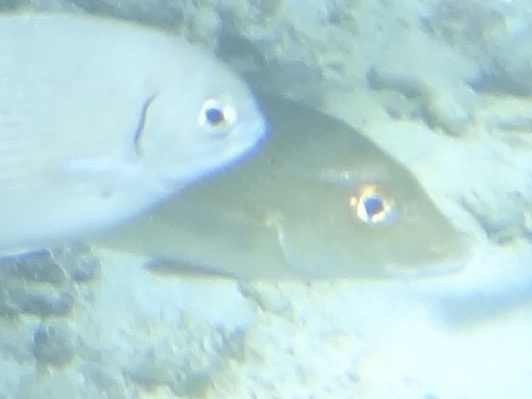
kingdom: Animalia
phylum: Chordata
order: Perciformes
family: Haemulidae
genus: Haemulon
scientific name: Haemulon parra
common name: Sailor's choice
